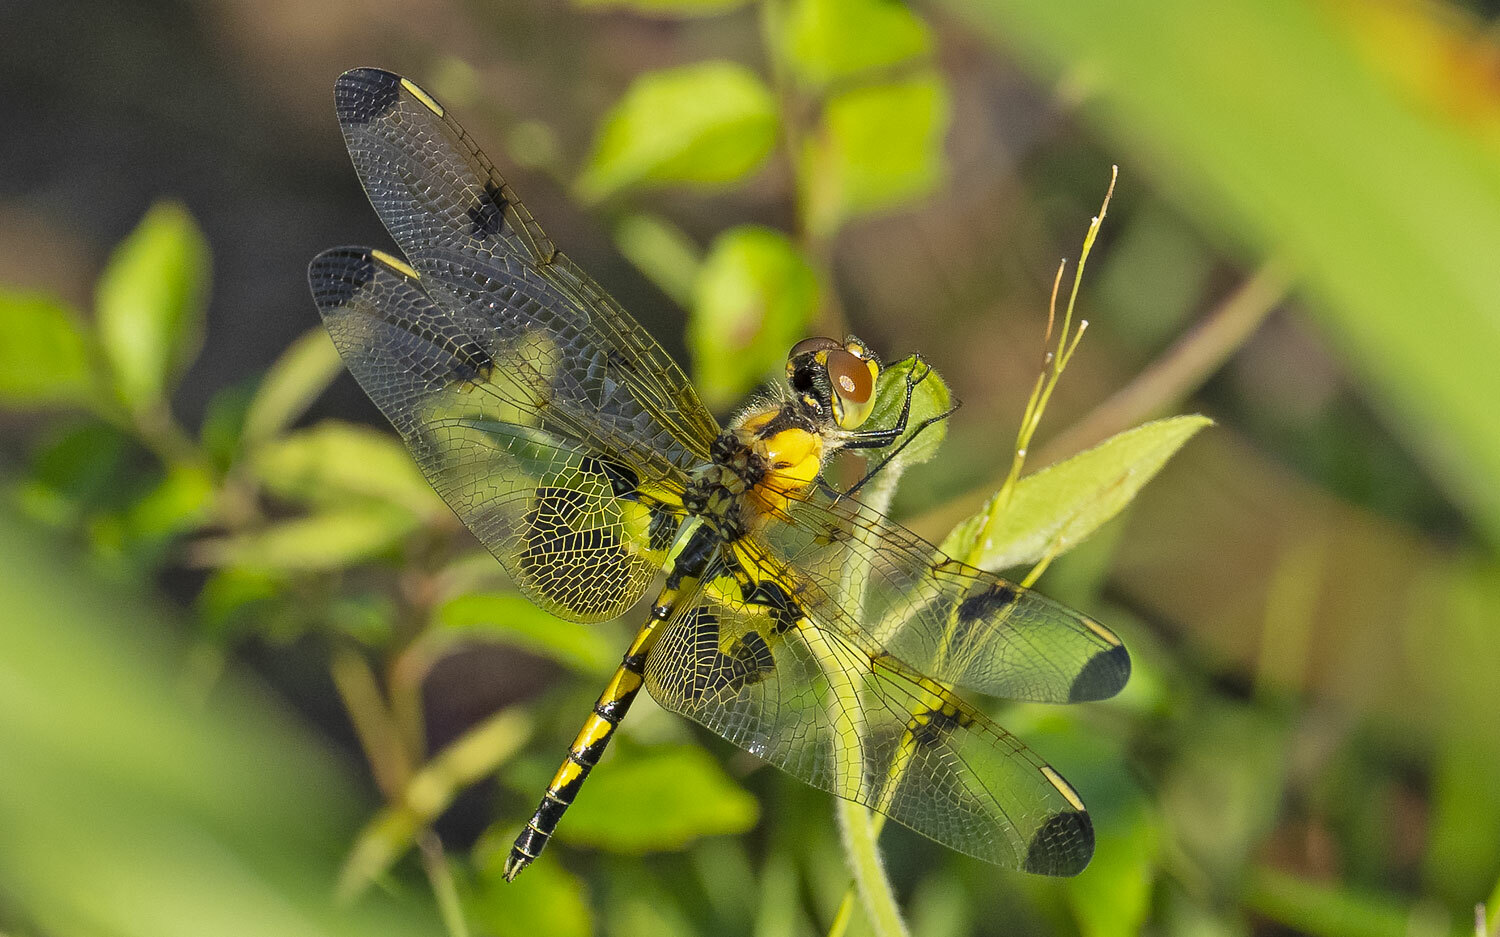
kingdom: Animalia
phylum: Arthropoda
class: Insecta
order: Odonata
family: Libellulidae
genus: Celithemis
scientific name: Celithemis elisa
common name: Calico pennant
